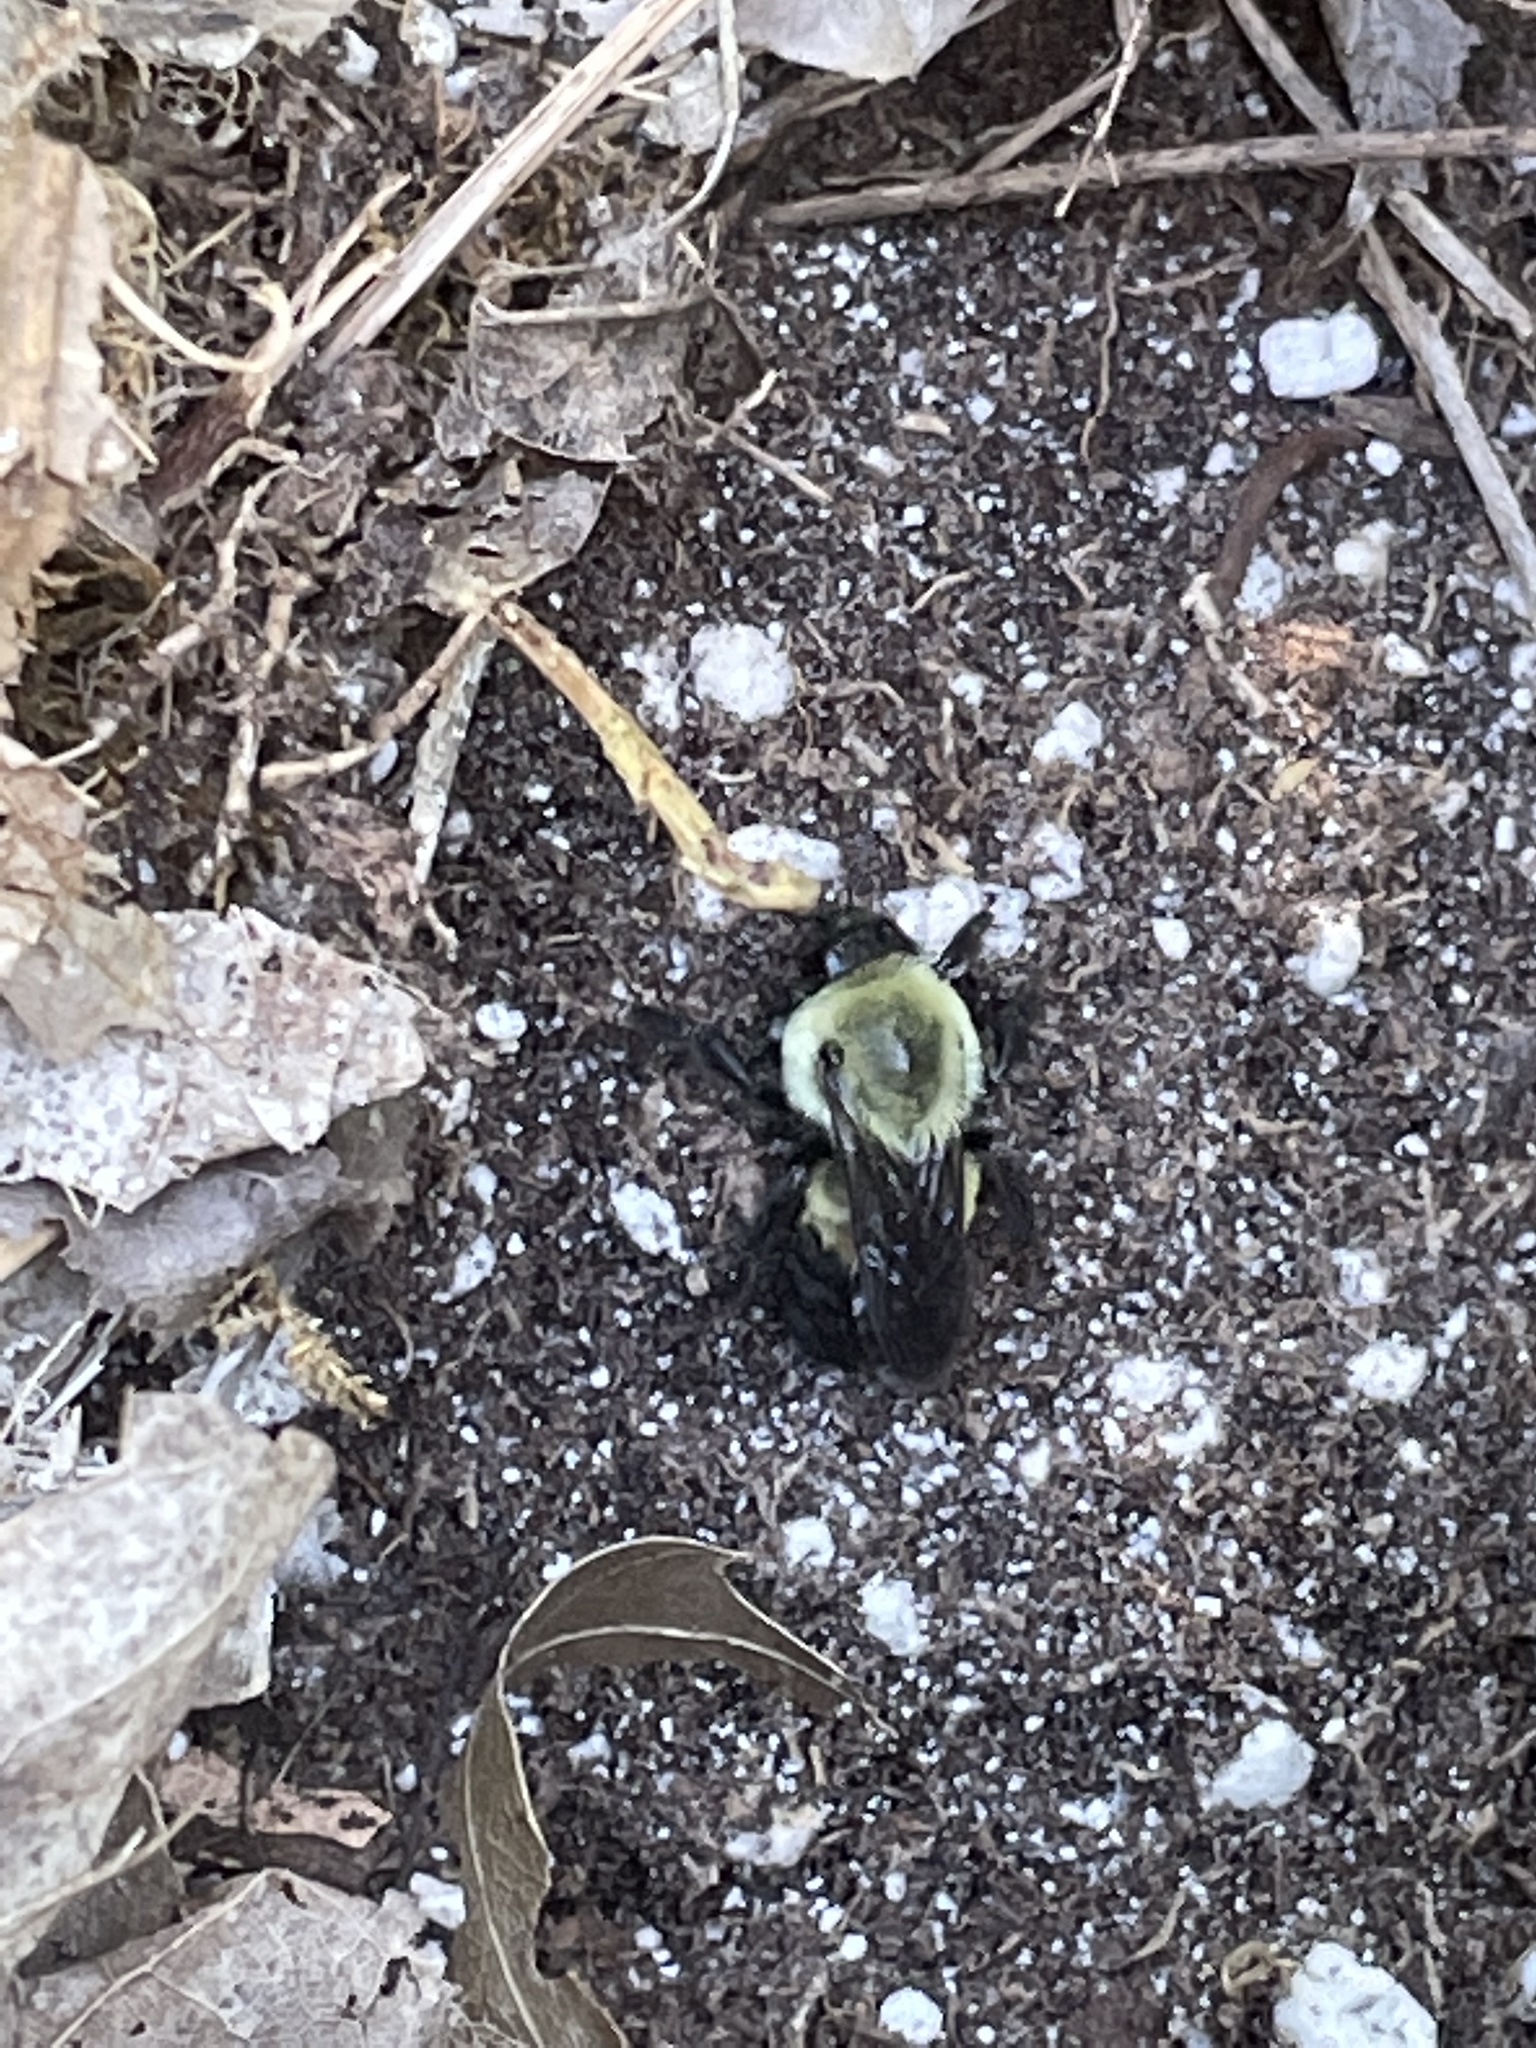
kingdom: Animalia
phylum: Arthropoda
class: Insecta
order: Hymenoptera
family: Apidae
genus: Bombus
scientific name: Bombus impatiens
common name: Common eastern bumble bee
